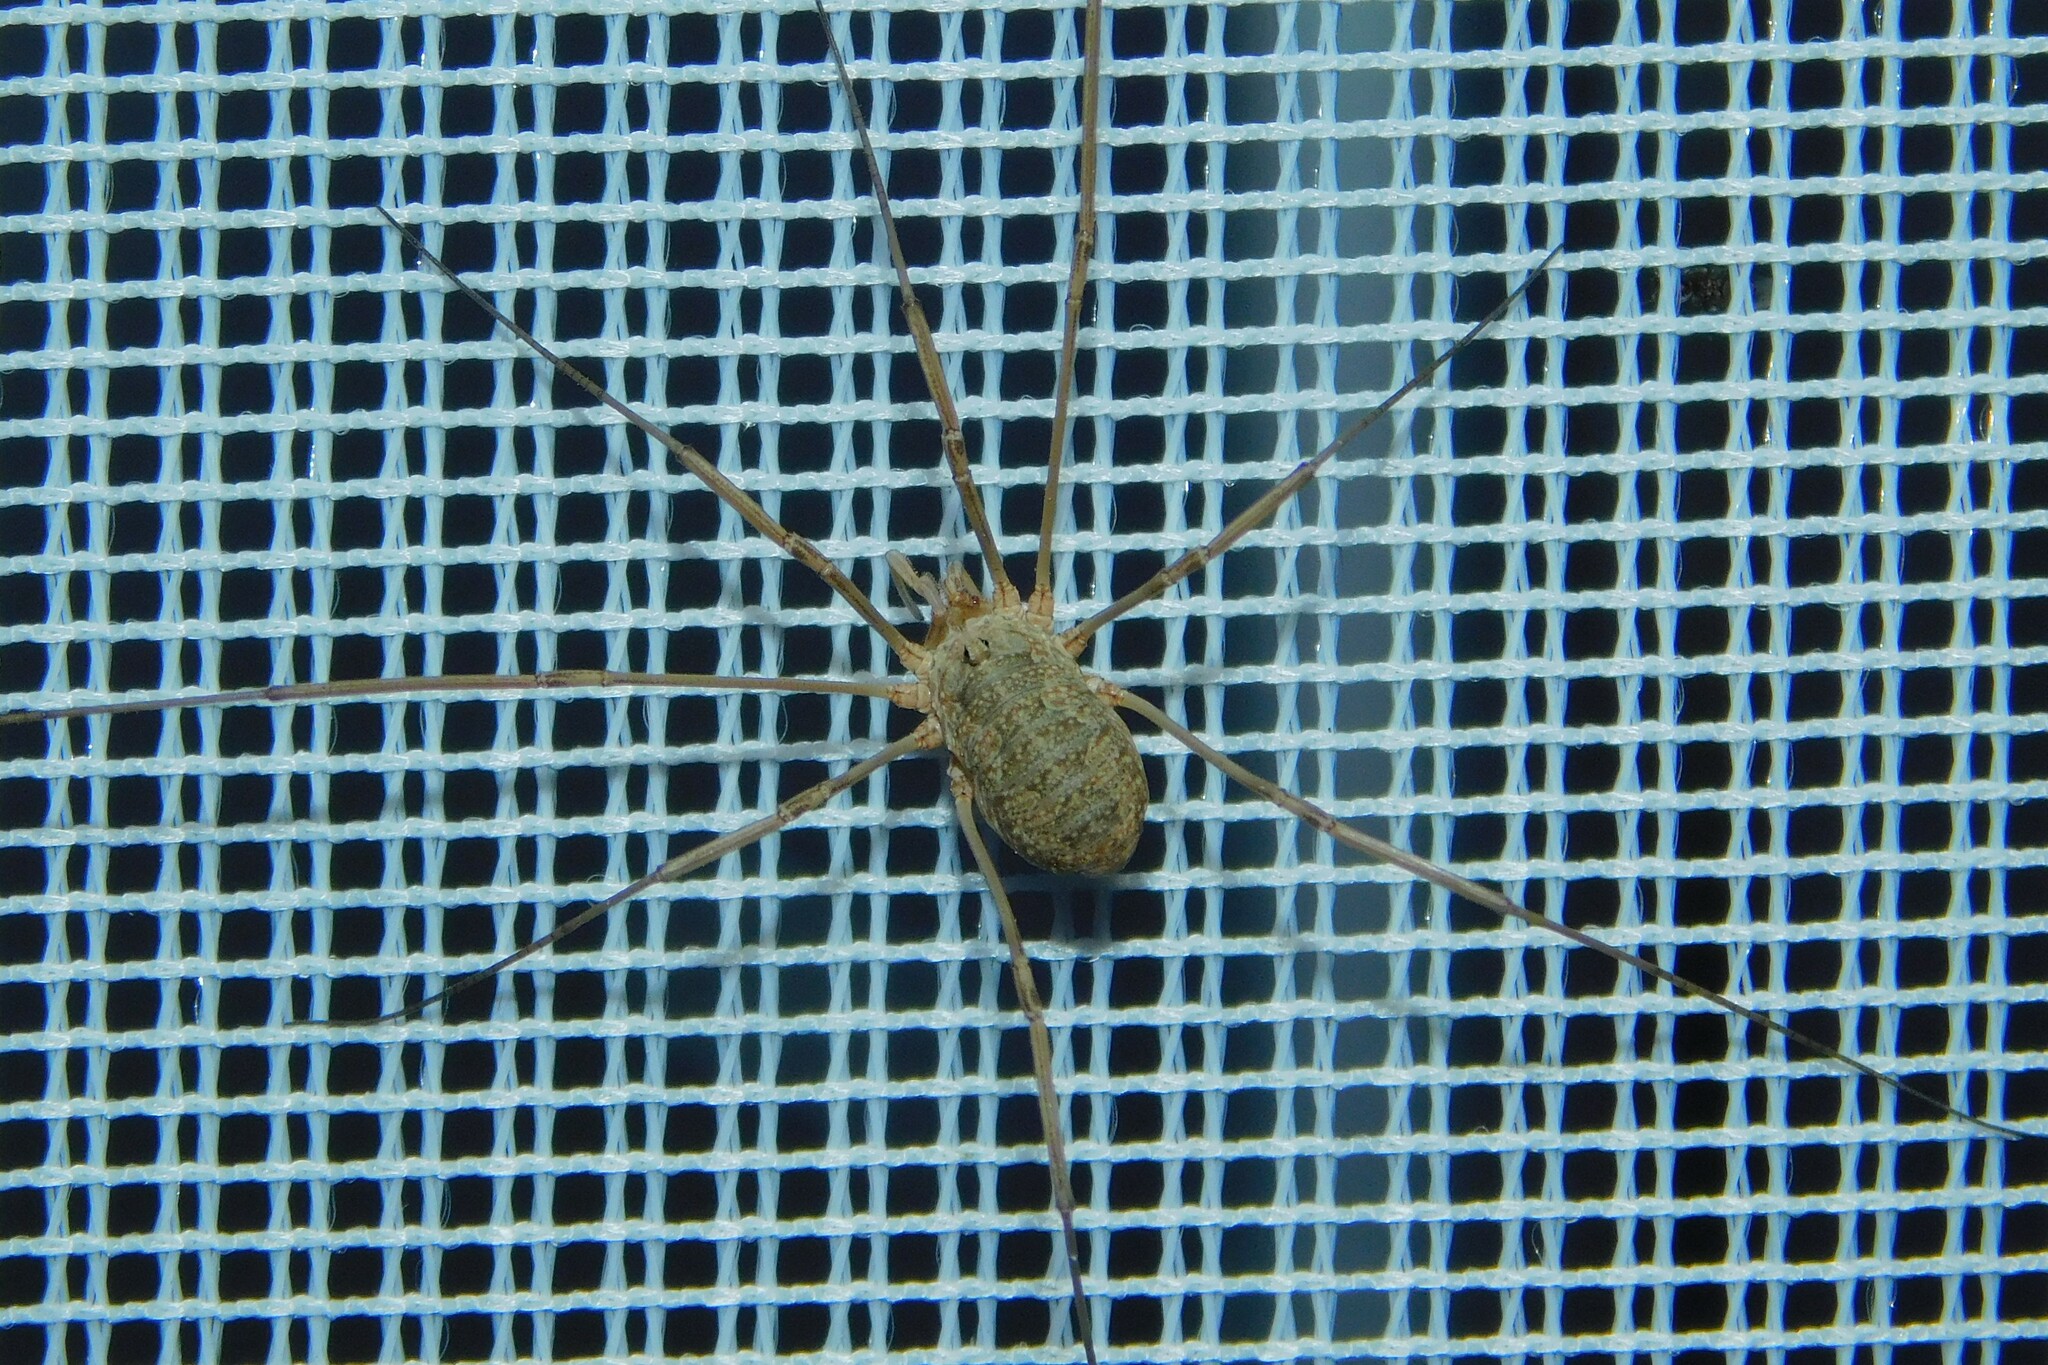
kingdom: Animalia
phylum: Arthropoda
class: Arachnida
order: Opiliones
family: Phalangiidae
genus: Phalangium
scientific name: Phalangium opilio
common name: Daddy longleg
